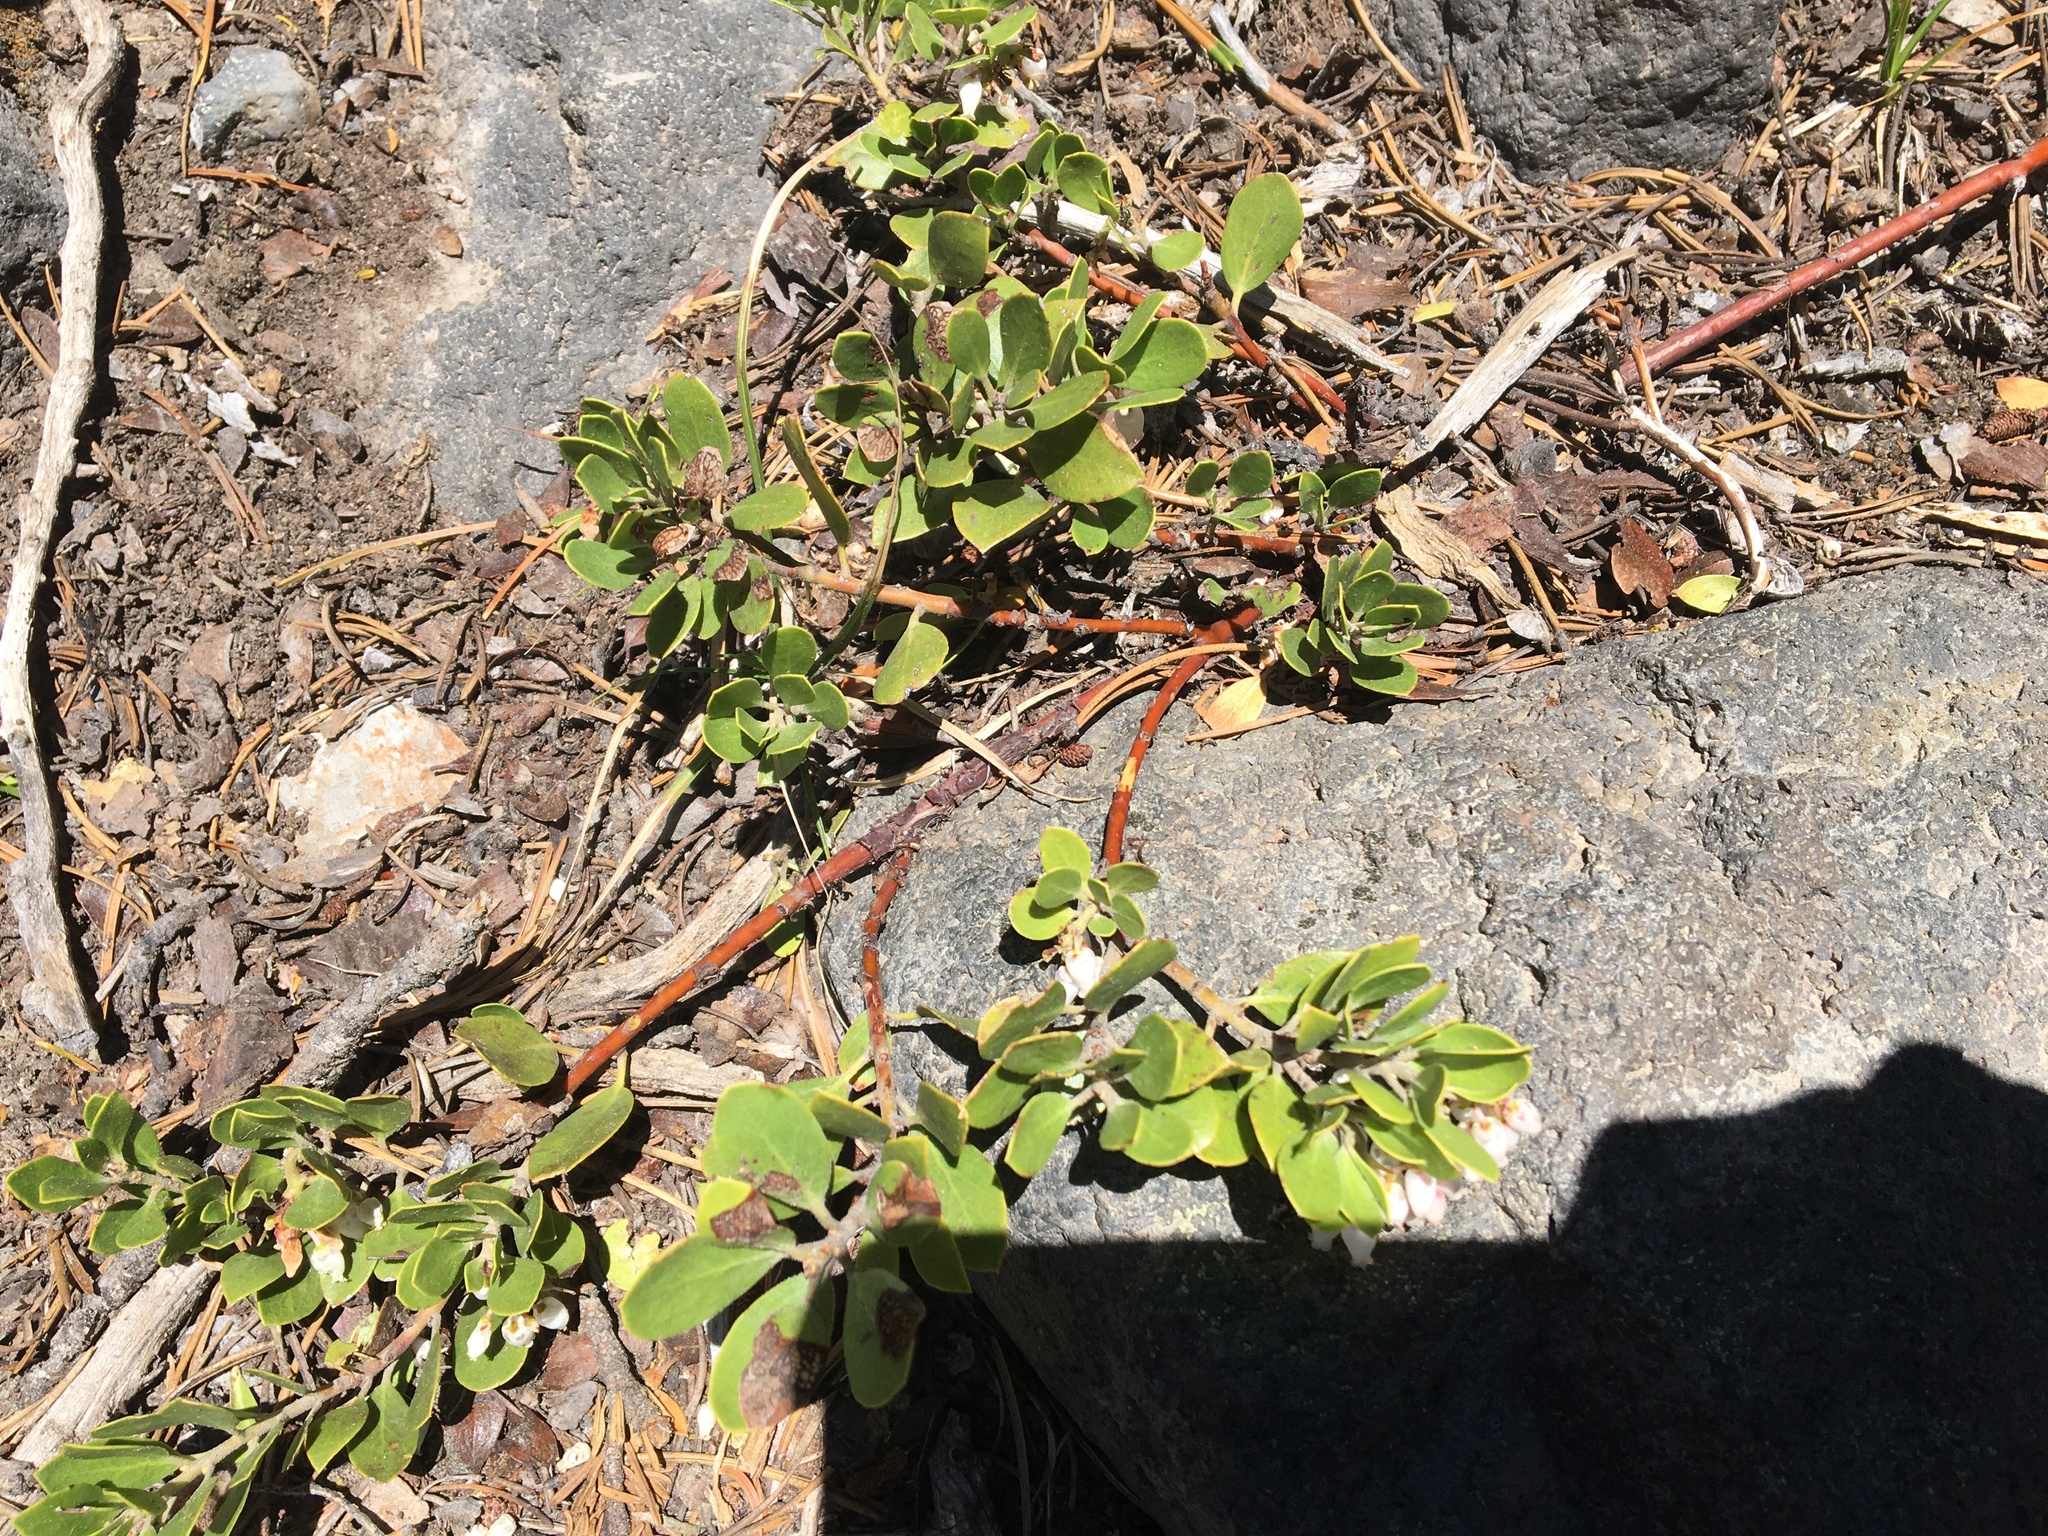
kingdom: Plantae
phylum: Tracheophyta
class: Magnoliopsida
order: Ericales
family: Ericaceae
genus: Arctostaphylos
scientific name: Arctostaphylos nevadensis
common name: Pinemat manzanita
